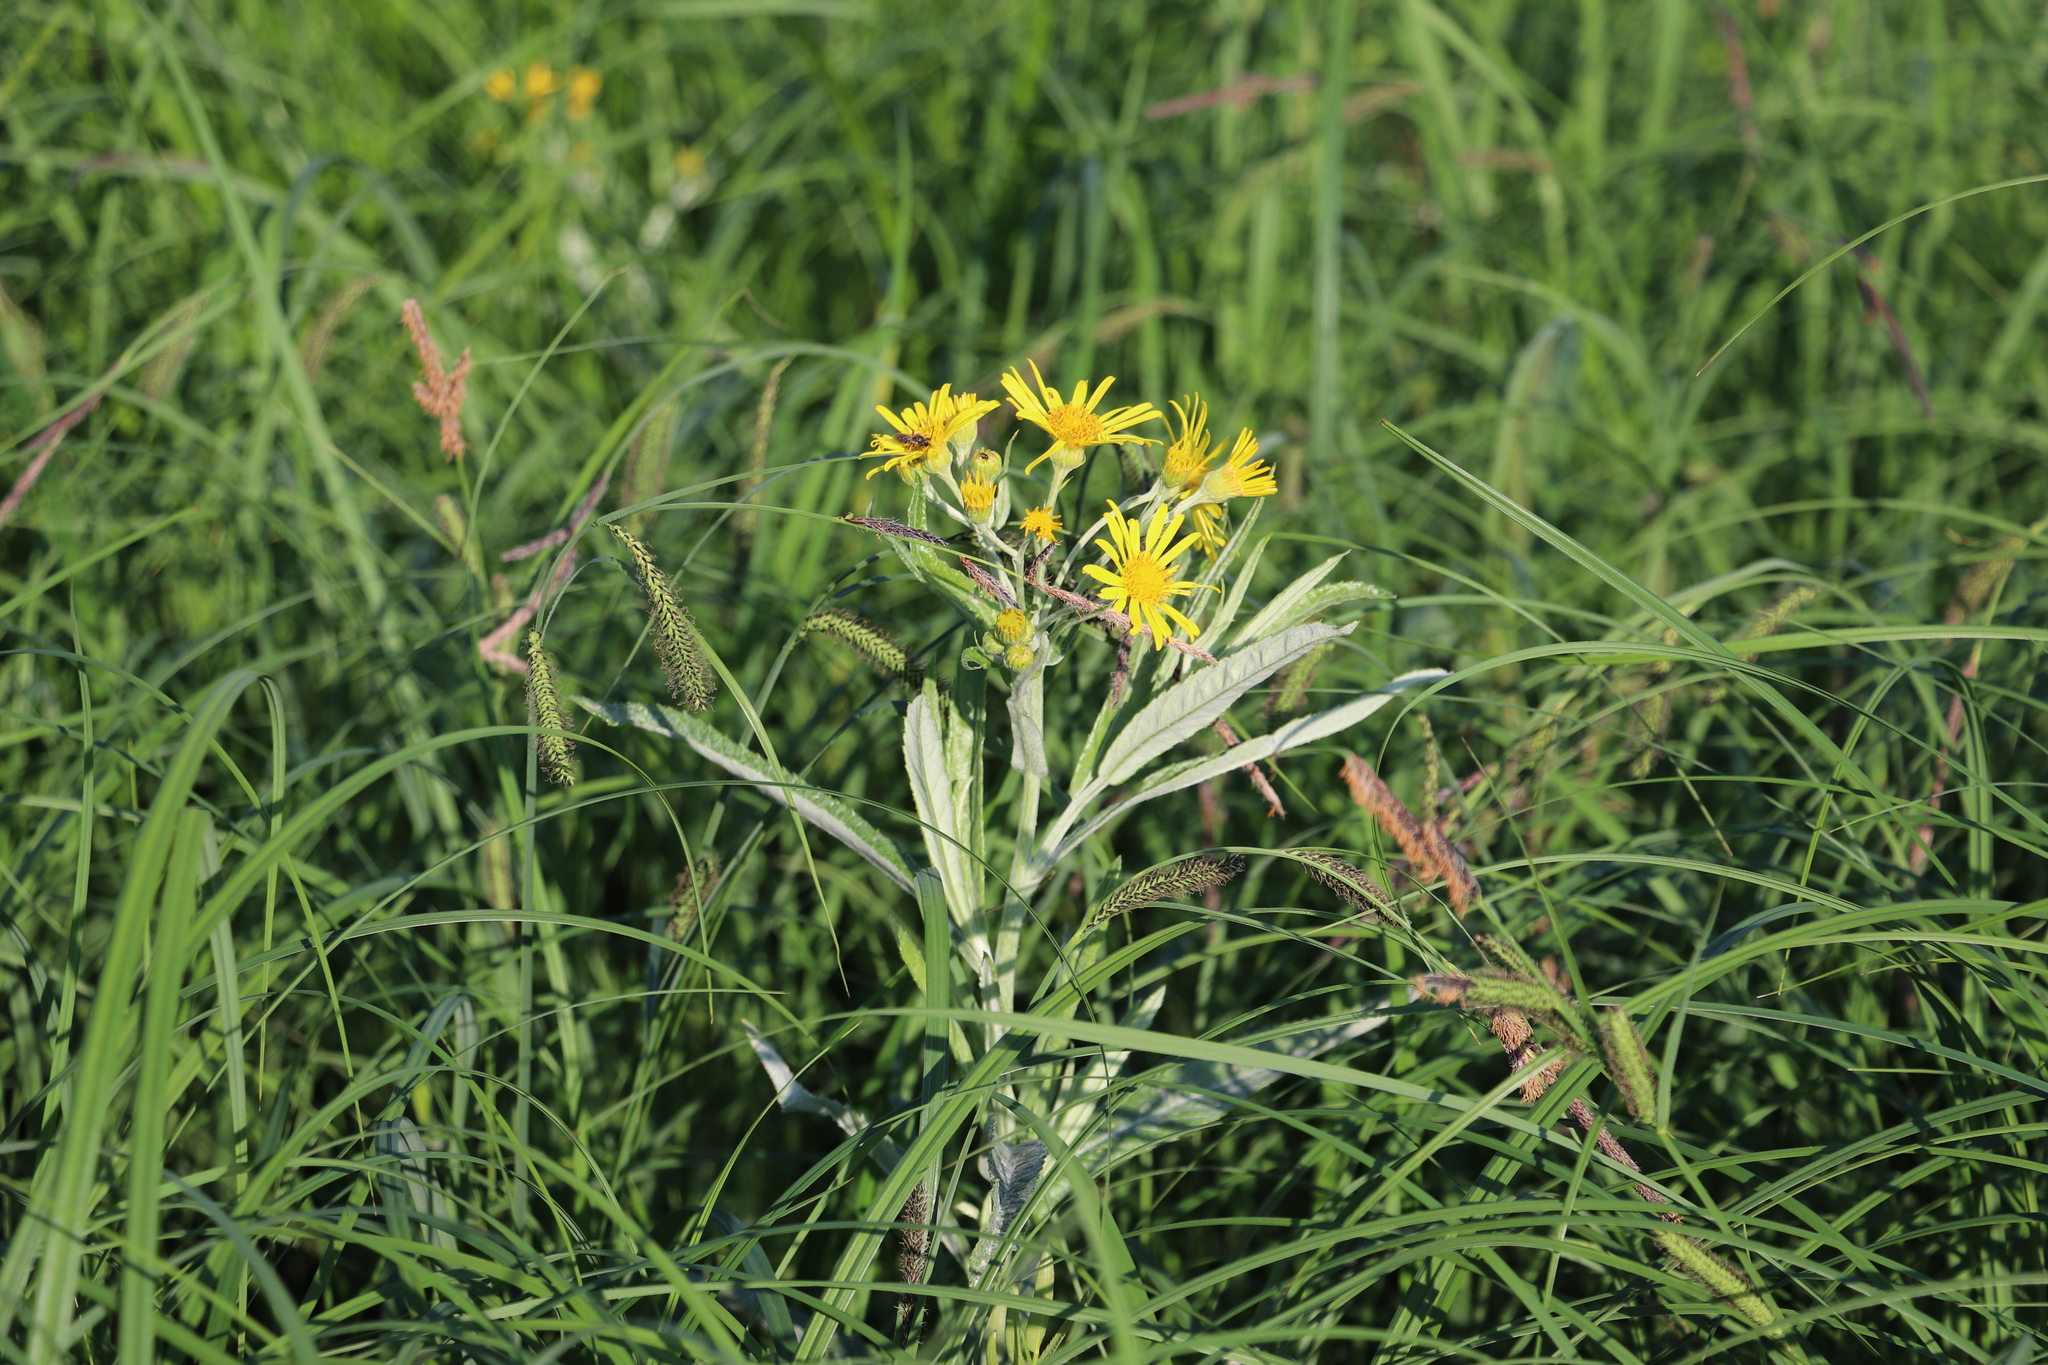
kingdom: Plantae
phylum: Tracheophyta
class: Magnoliopsida
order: Asterales
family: Asteraceae
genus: Jacobaea
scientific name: Jacobaea paludosa
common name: Fen ragwort
